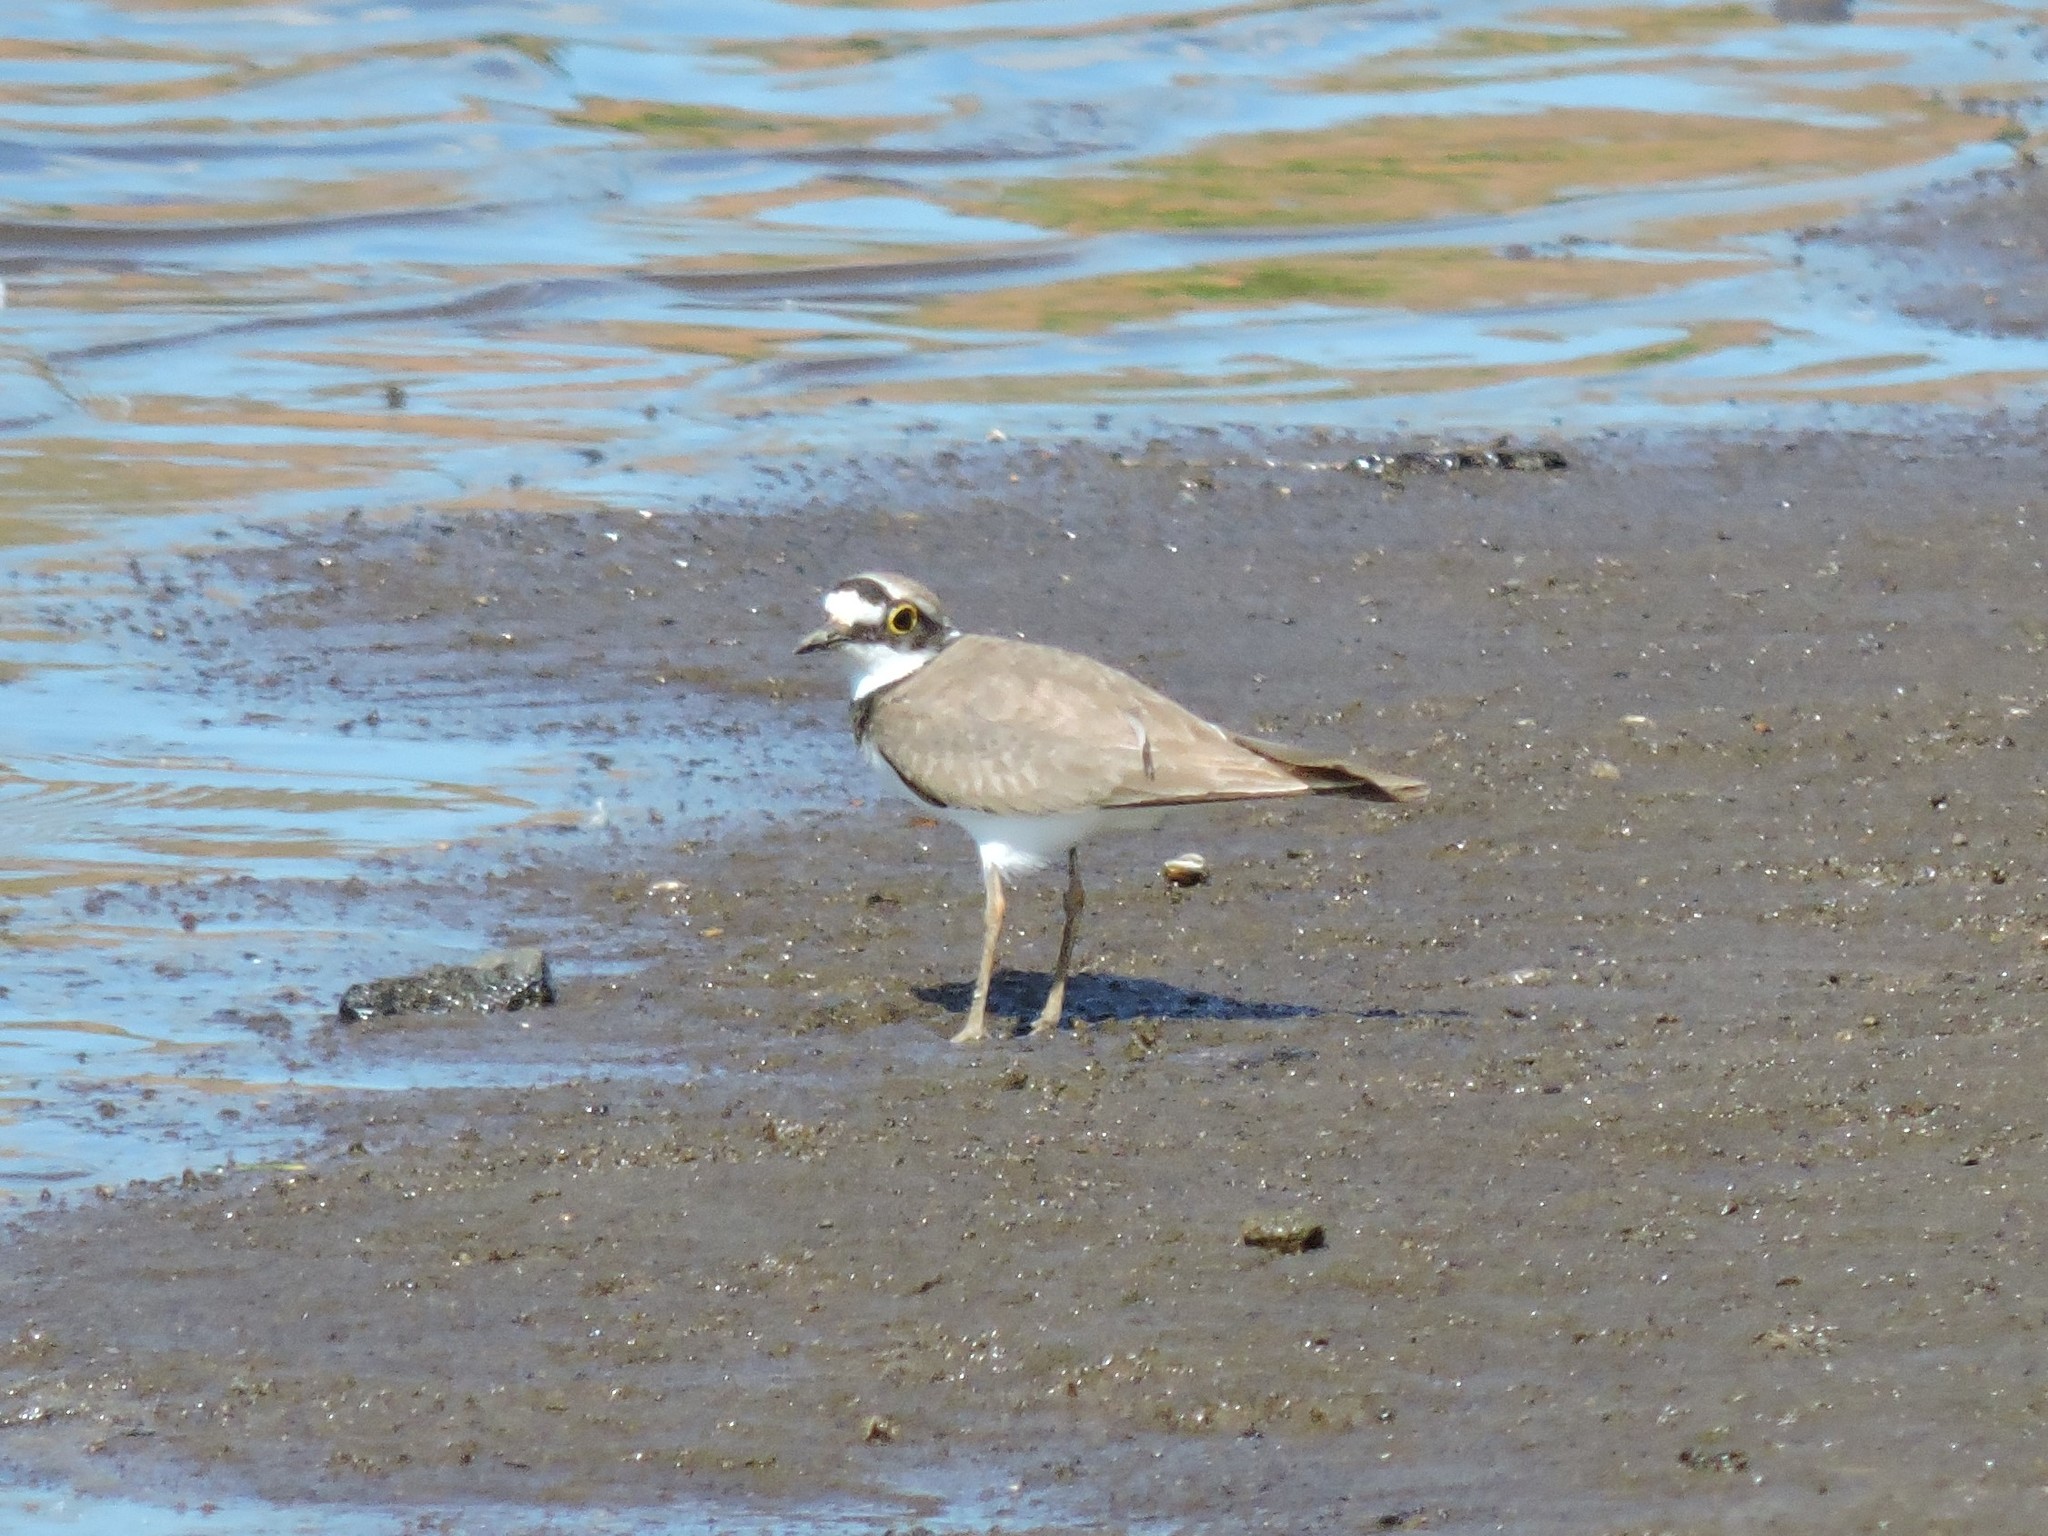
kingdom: Animalia
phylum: Chordata
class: Aves
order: Charadriiformes
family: Charadriidae
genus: Charadrius
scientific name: Charadrius dubius
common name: Little ringed plover
